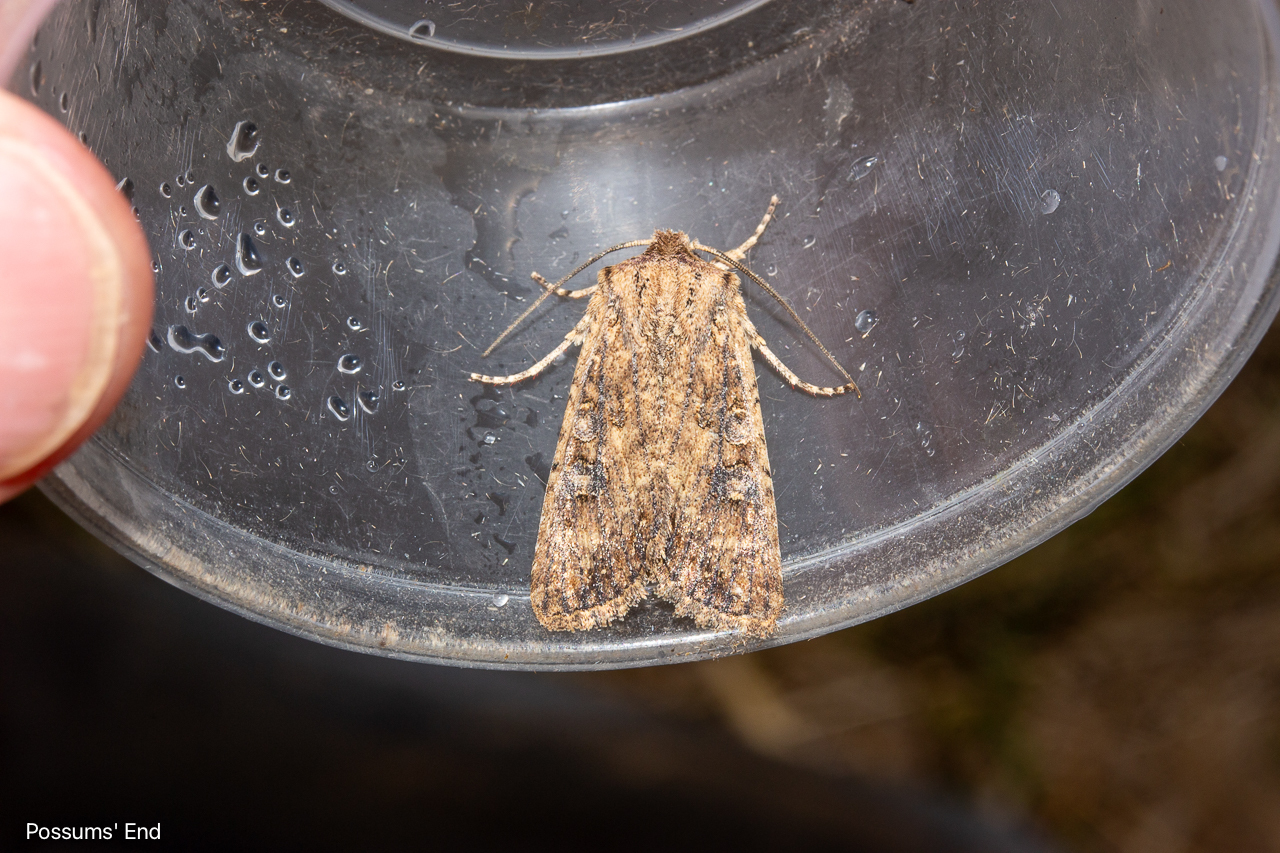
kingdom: Animalia
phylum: Arthropoda
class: Insecta
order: Lepidoptera
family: Noctuidae
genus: Ichneutica
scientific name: Ichneutica morosa
